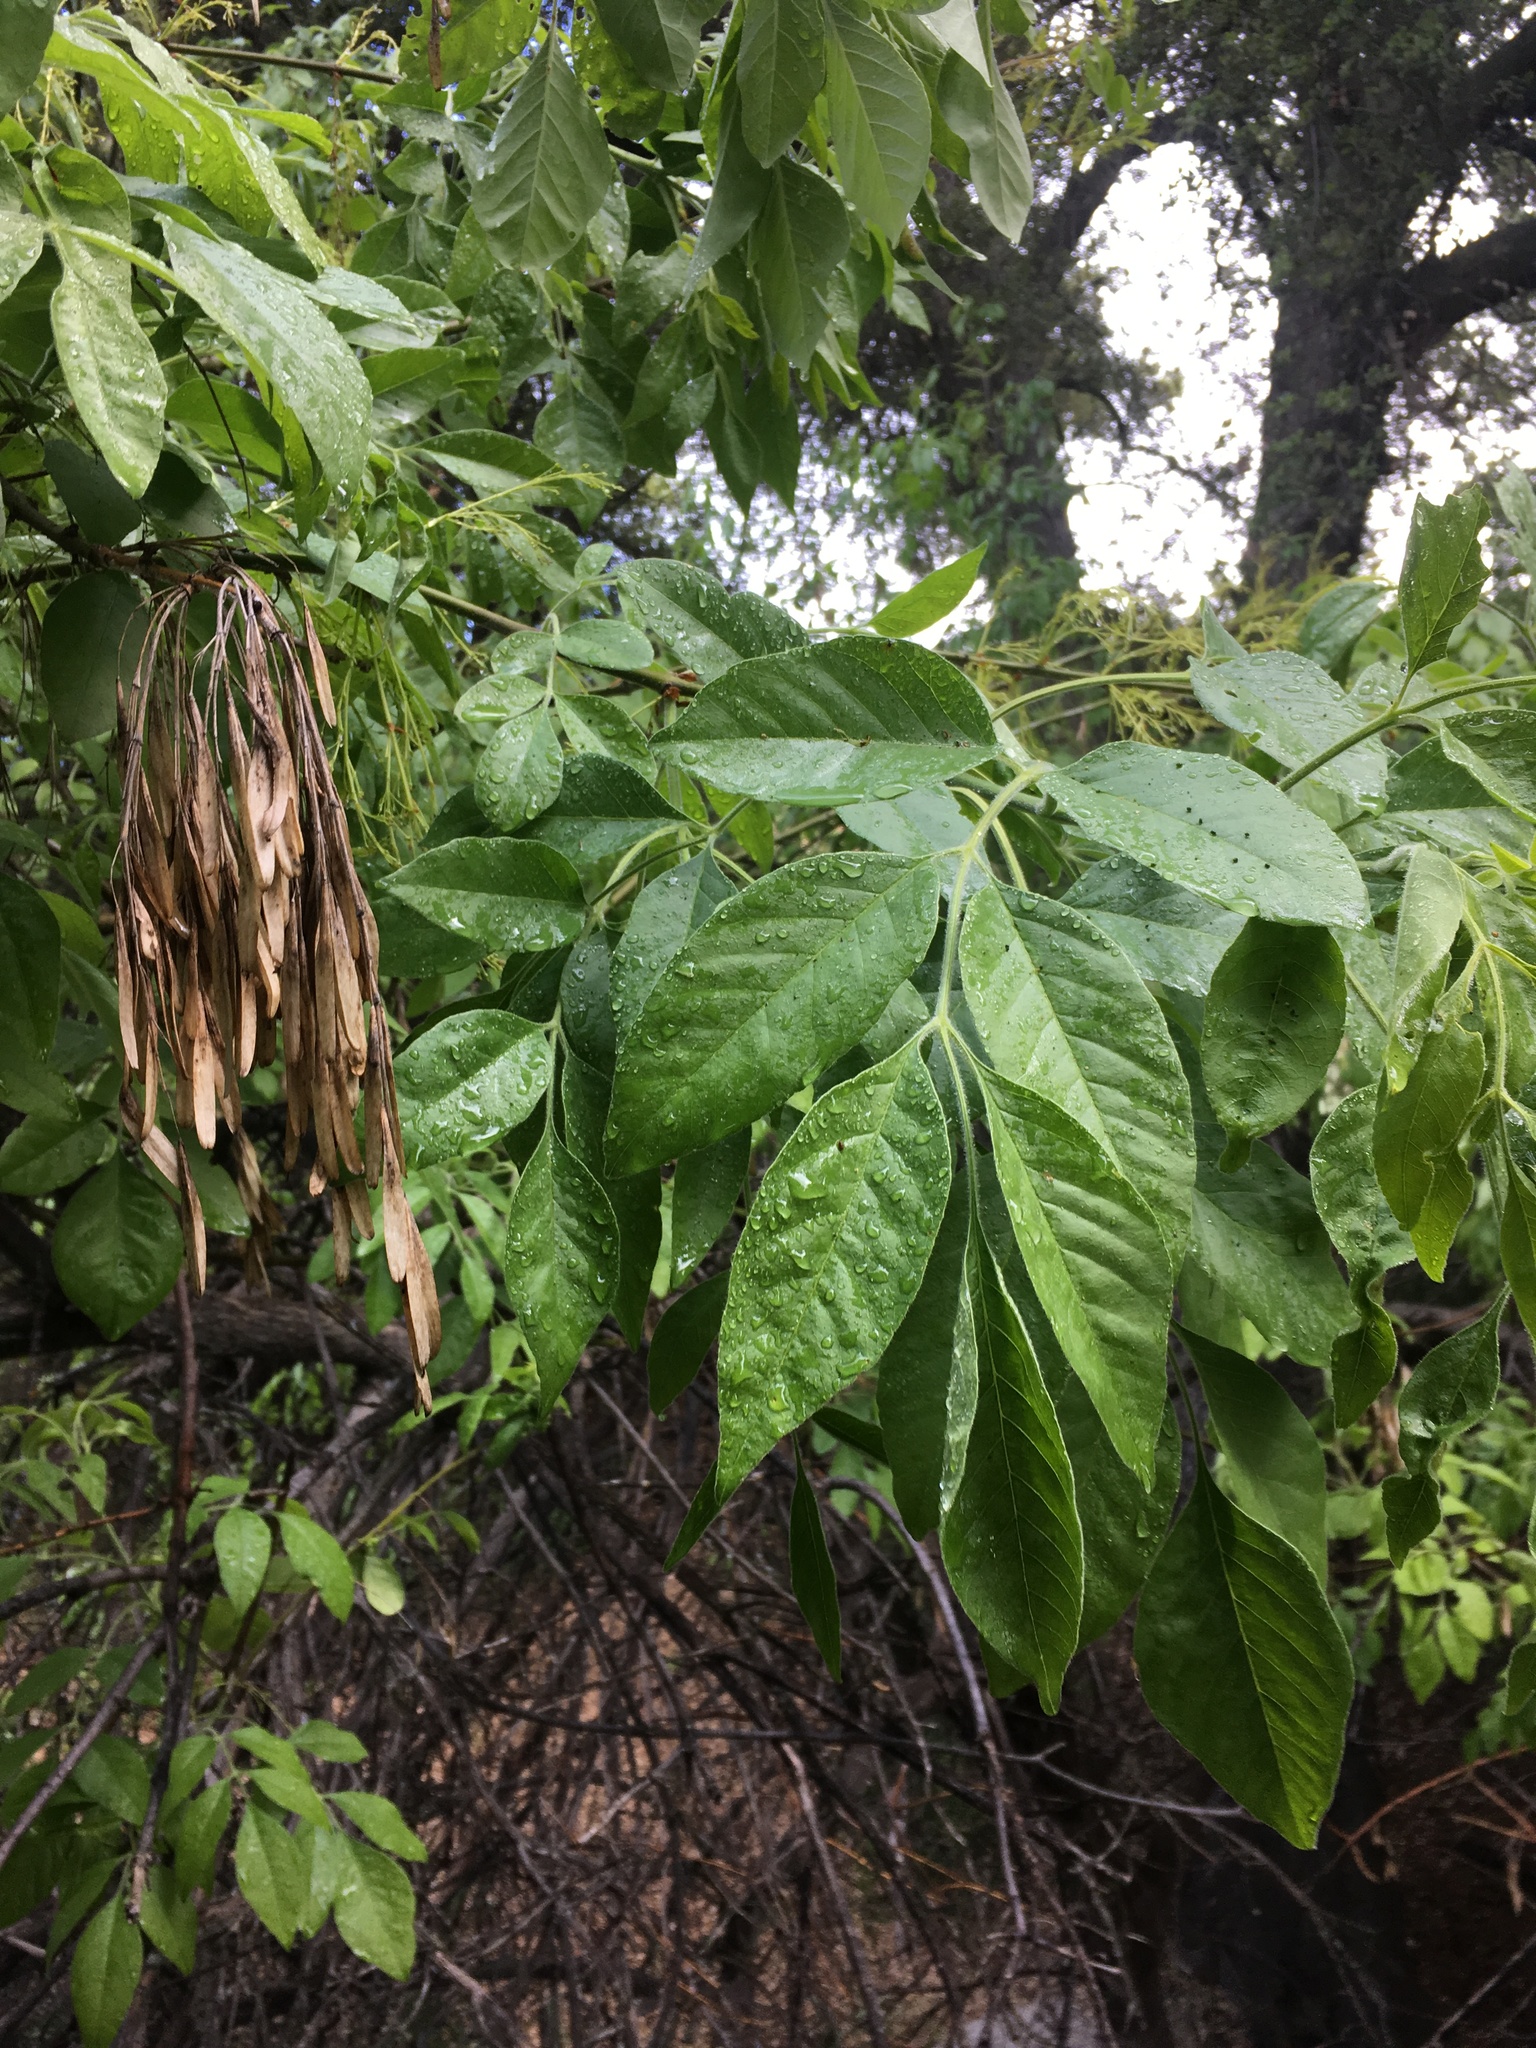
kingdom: Plantae
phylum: Tracheophyta
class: Magnoliopsida
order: Lamiales
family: Oleaceae
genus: Fraxinus
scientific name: Fraxinus velutina
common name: Arizon ash
